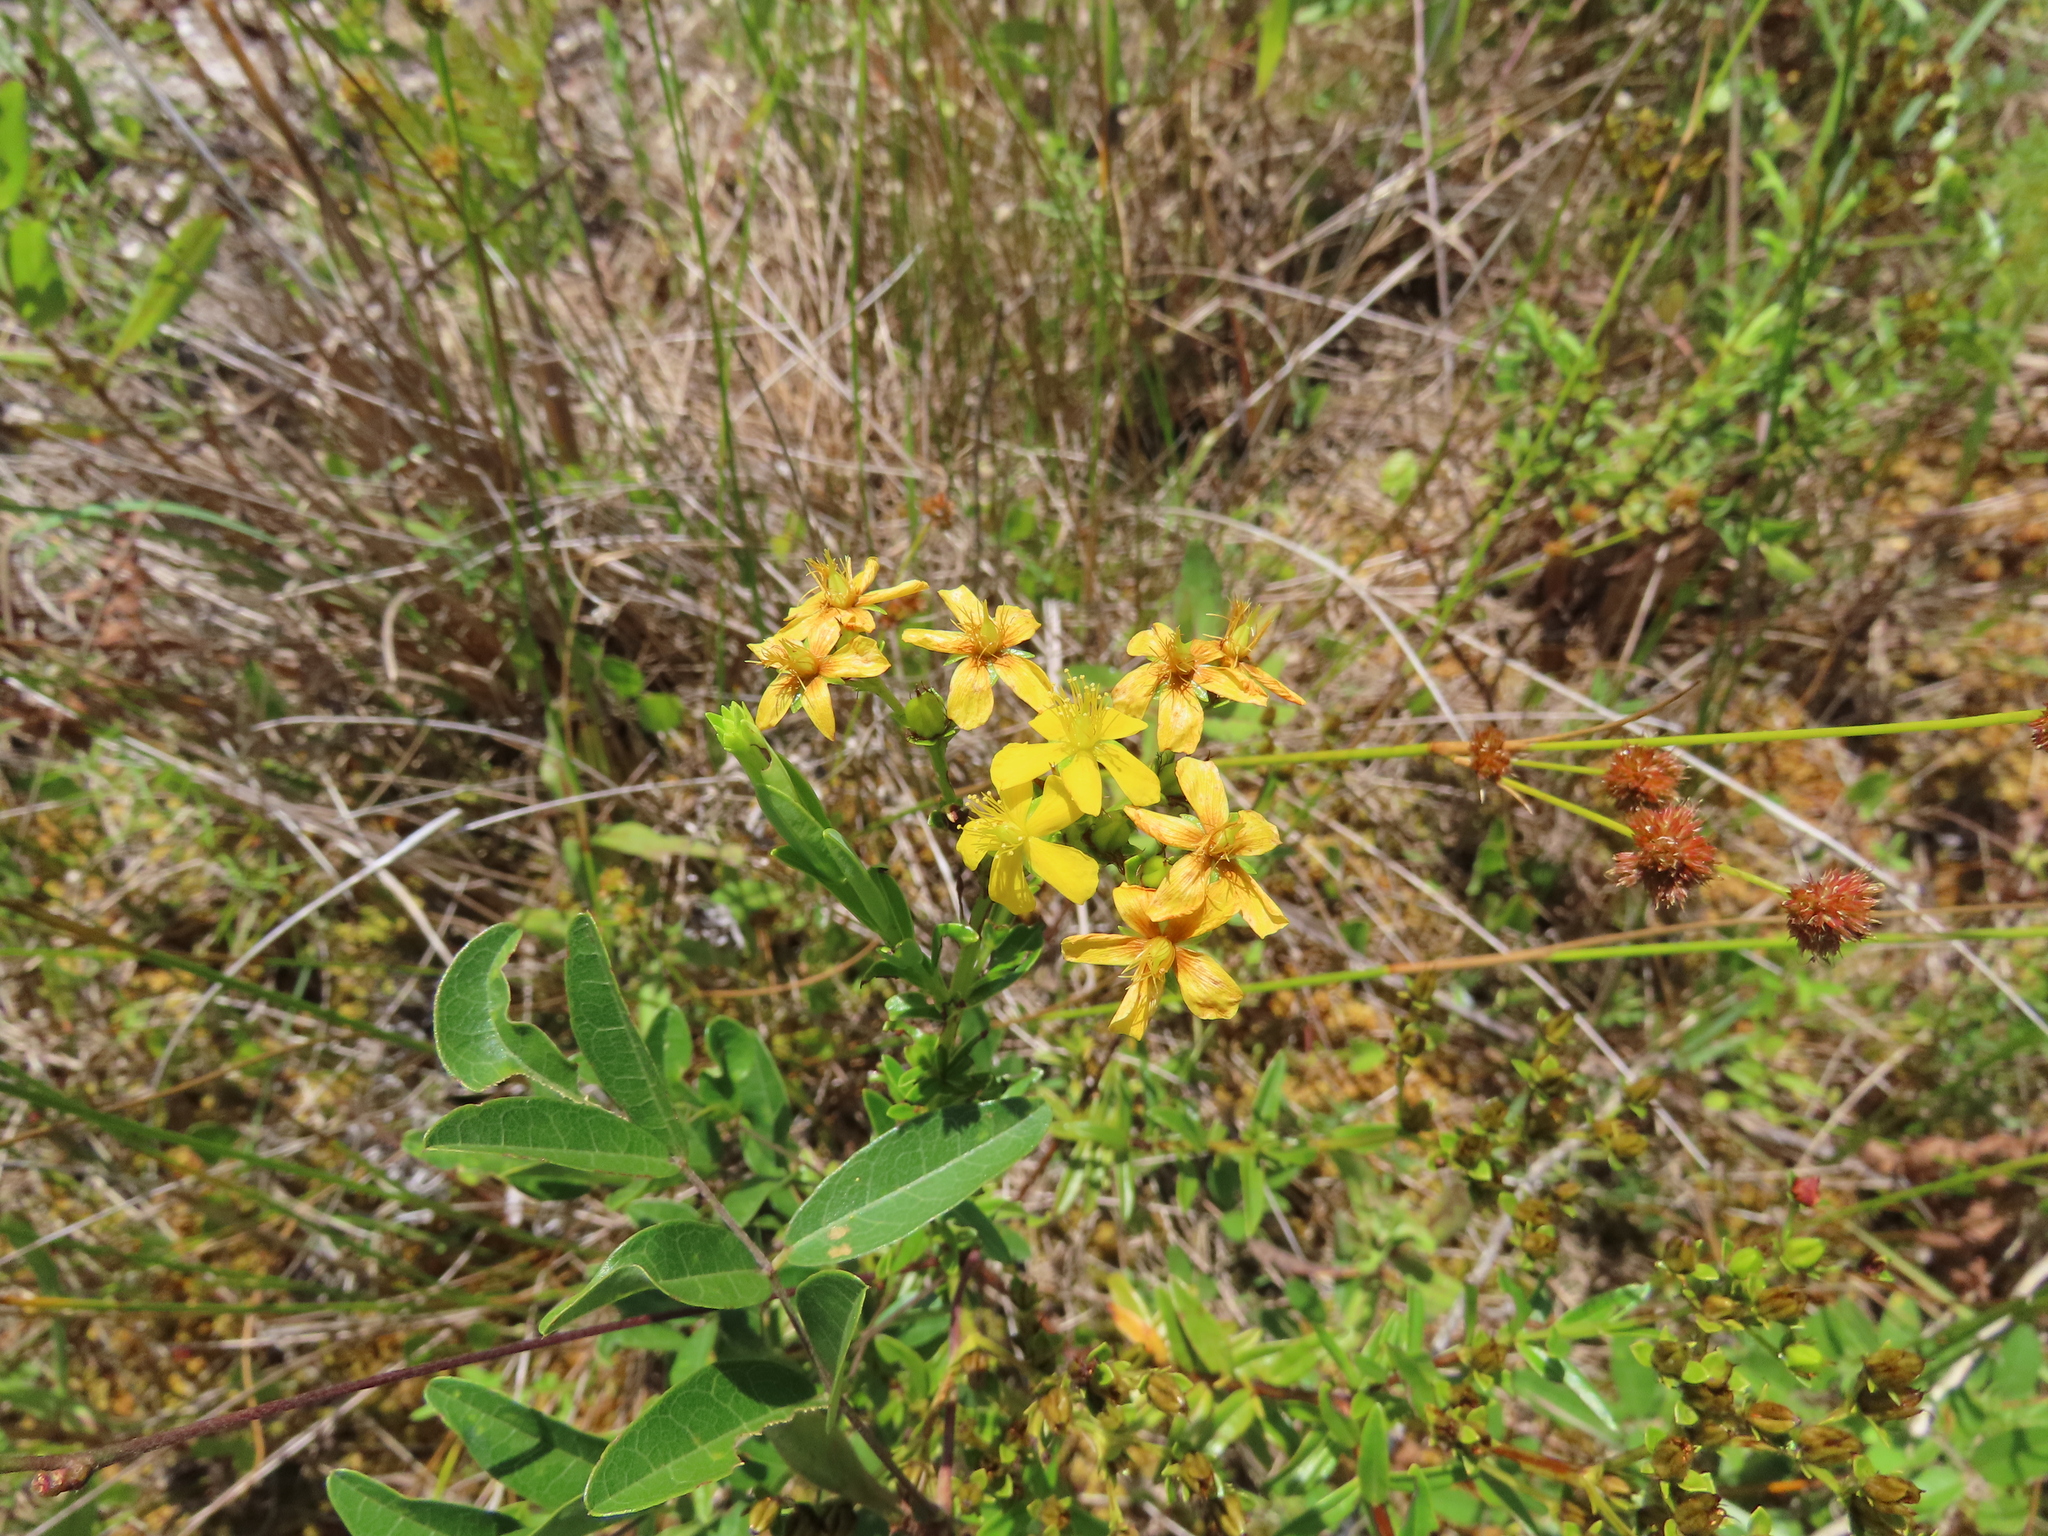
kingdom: Plantae
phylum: Tracheophyta
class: Magnoliopsida
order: Malpighiales
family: Hypericaceae
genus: Hypericum
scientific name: Hypericum cistifolium
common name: Round-pod st. john's-wort
